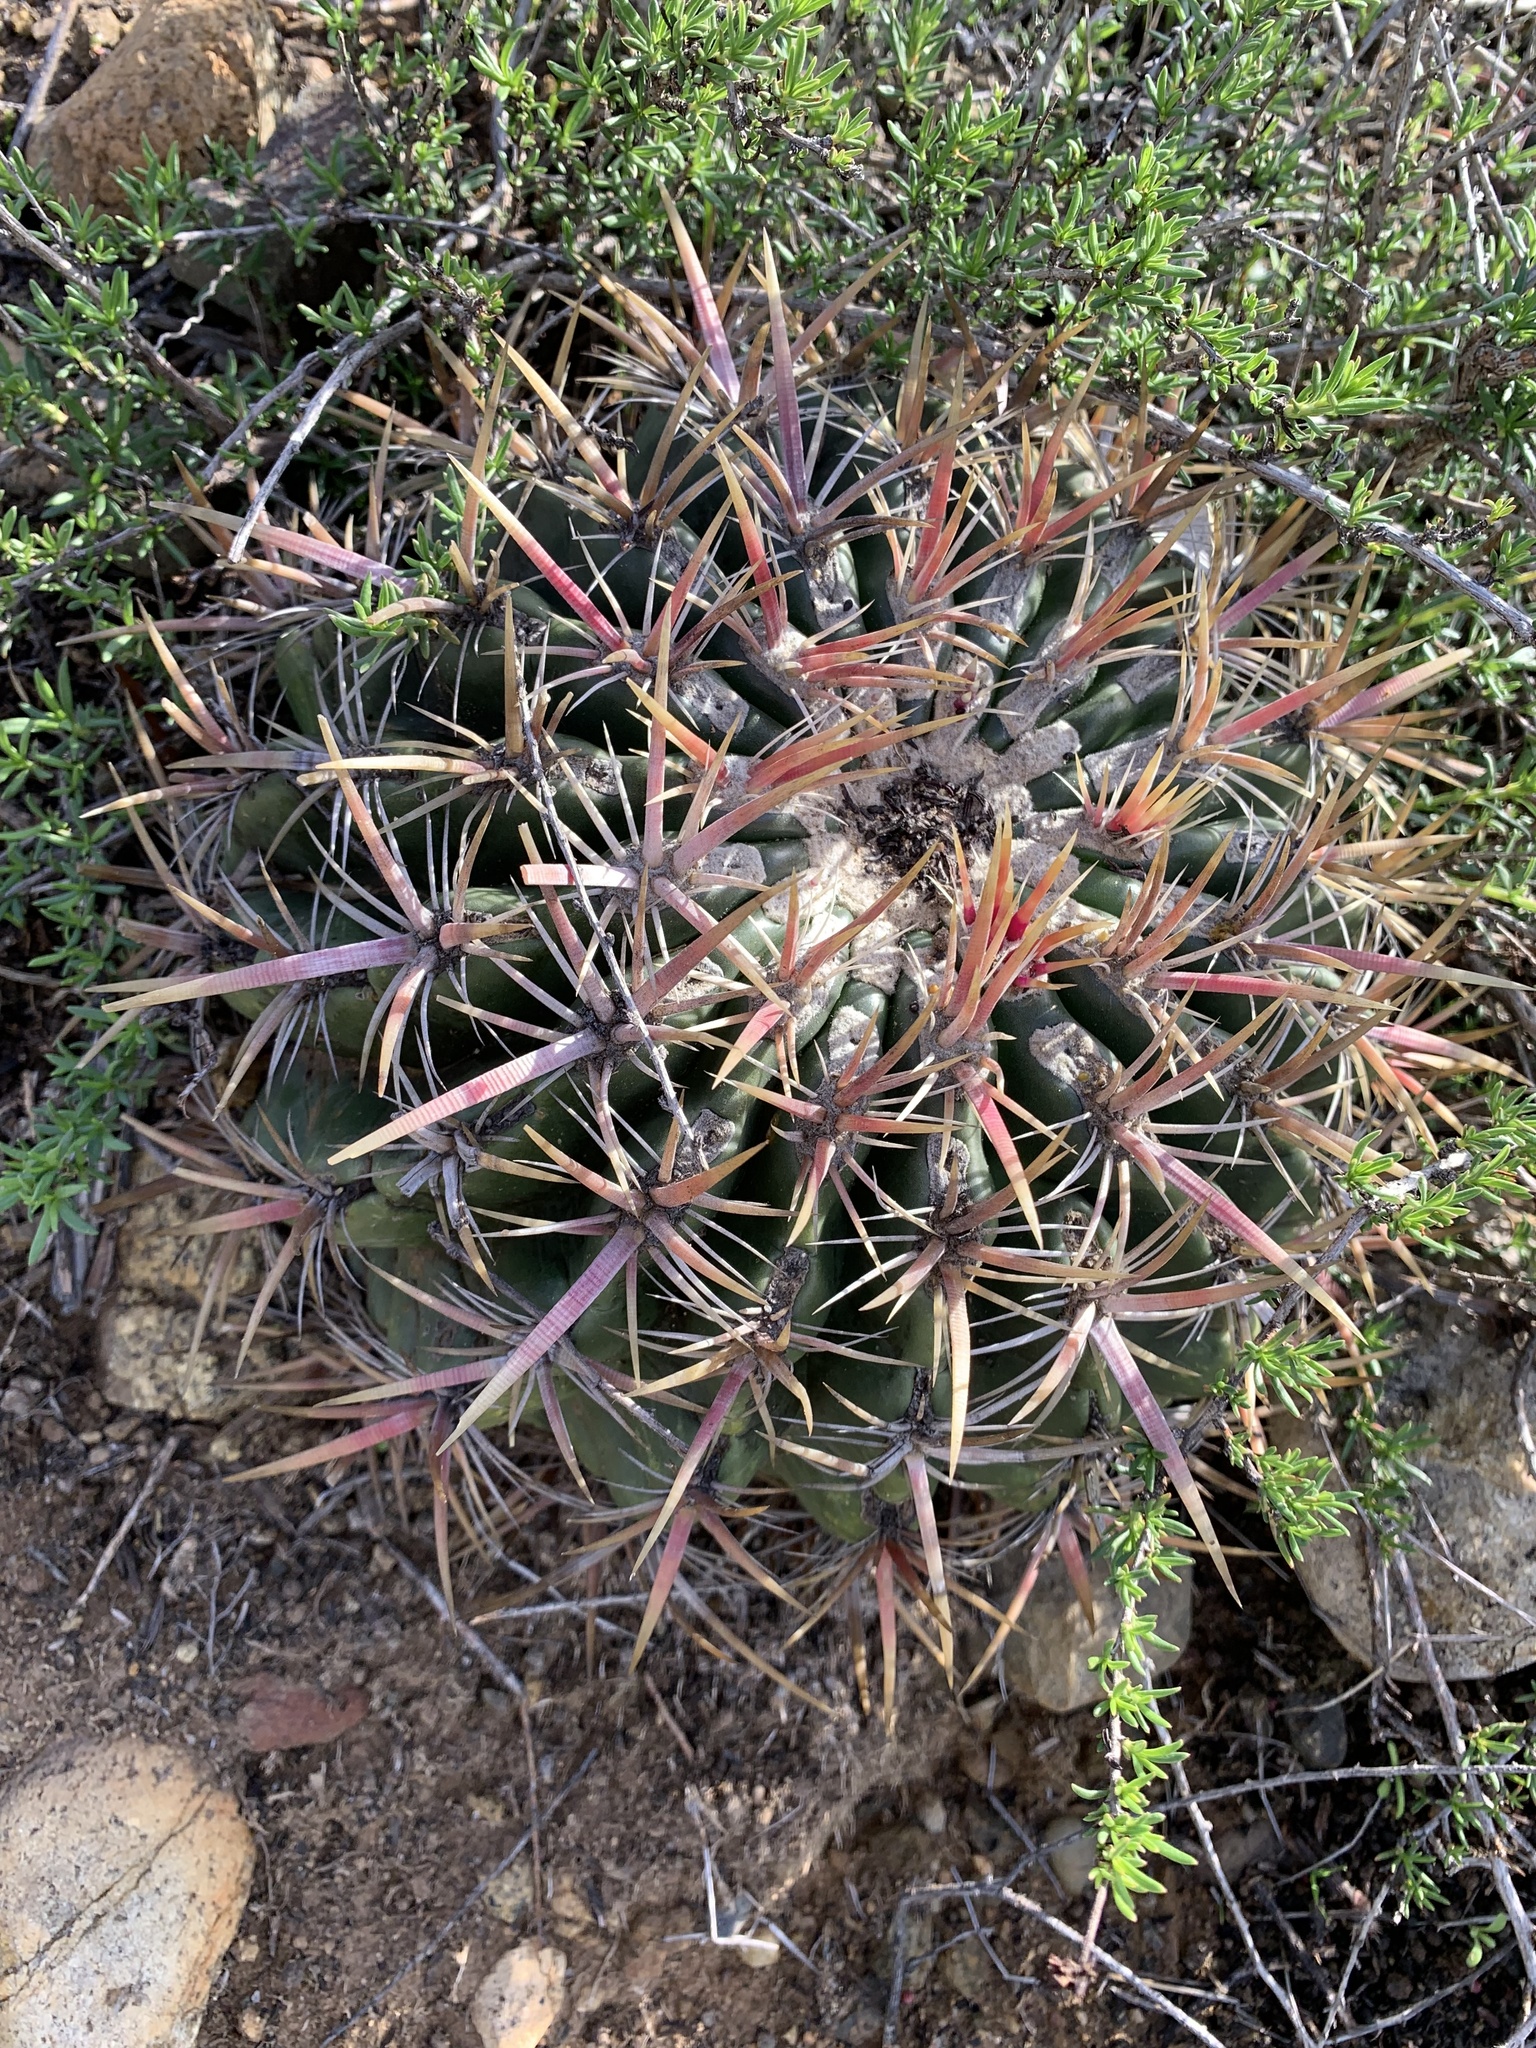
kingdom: Plantae
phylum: Tracheophyta
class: Magnoliopsida
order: Caryophyllales
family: Cactaceae
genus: Ferocactus
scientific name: Ferocactus viridescens
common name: San diego barrel cactus
